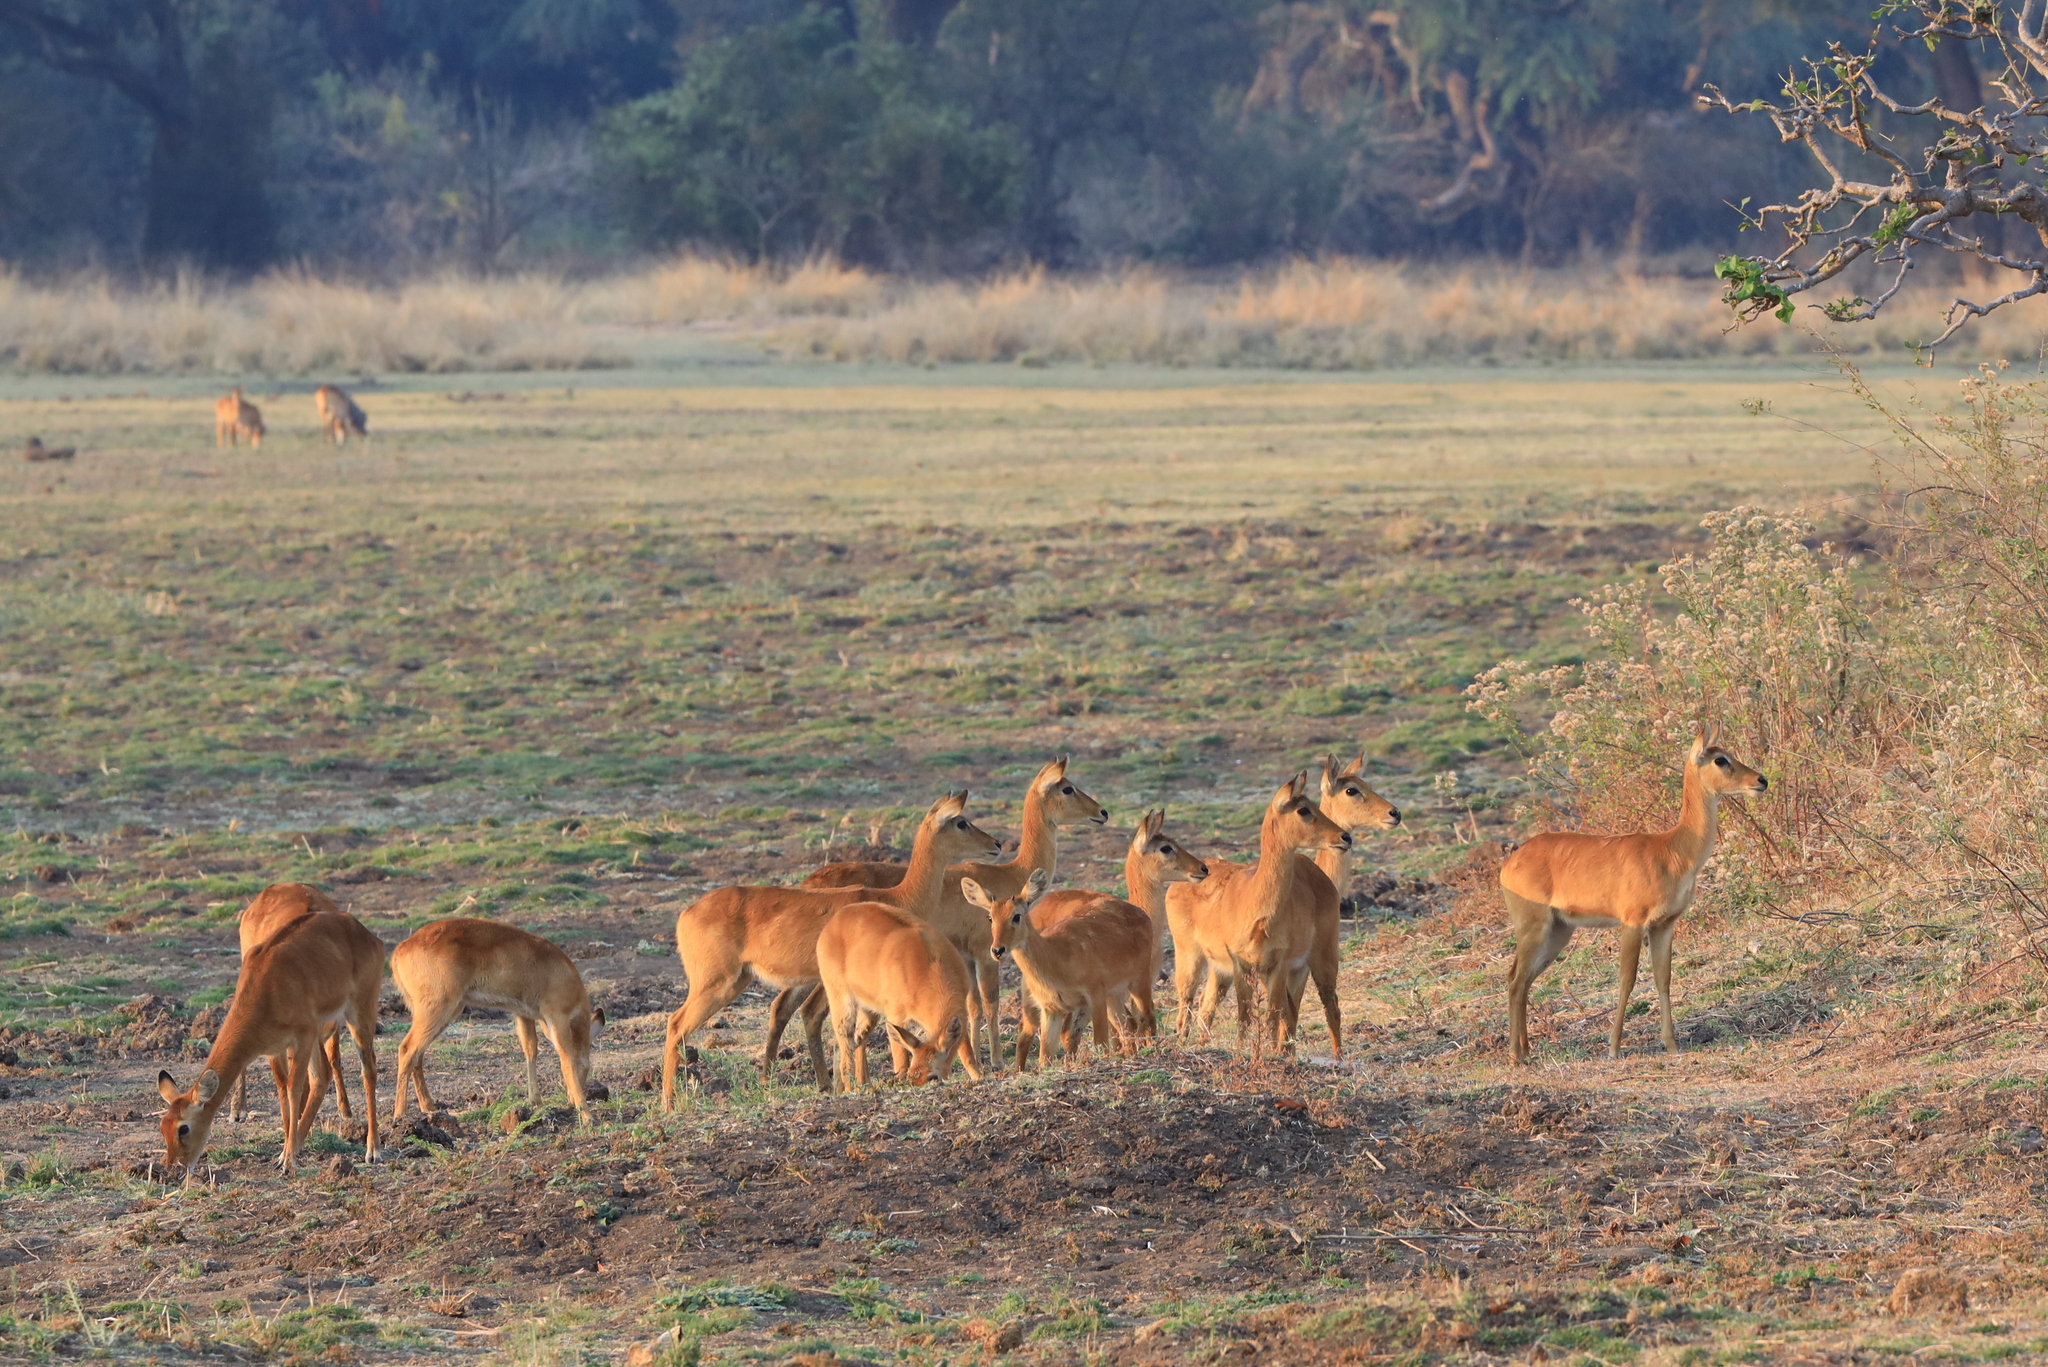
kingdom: Animalia
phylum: Chordata
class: Mammalia
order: Artiodactyla
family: Bovidae
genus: Kobus
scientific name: Kobus vardonii
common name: Puku
